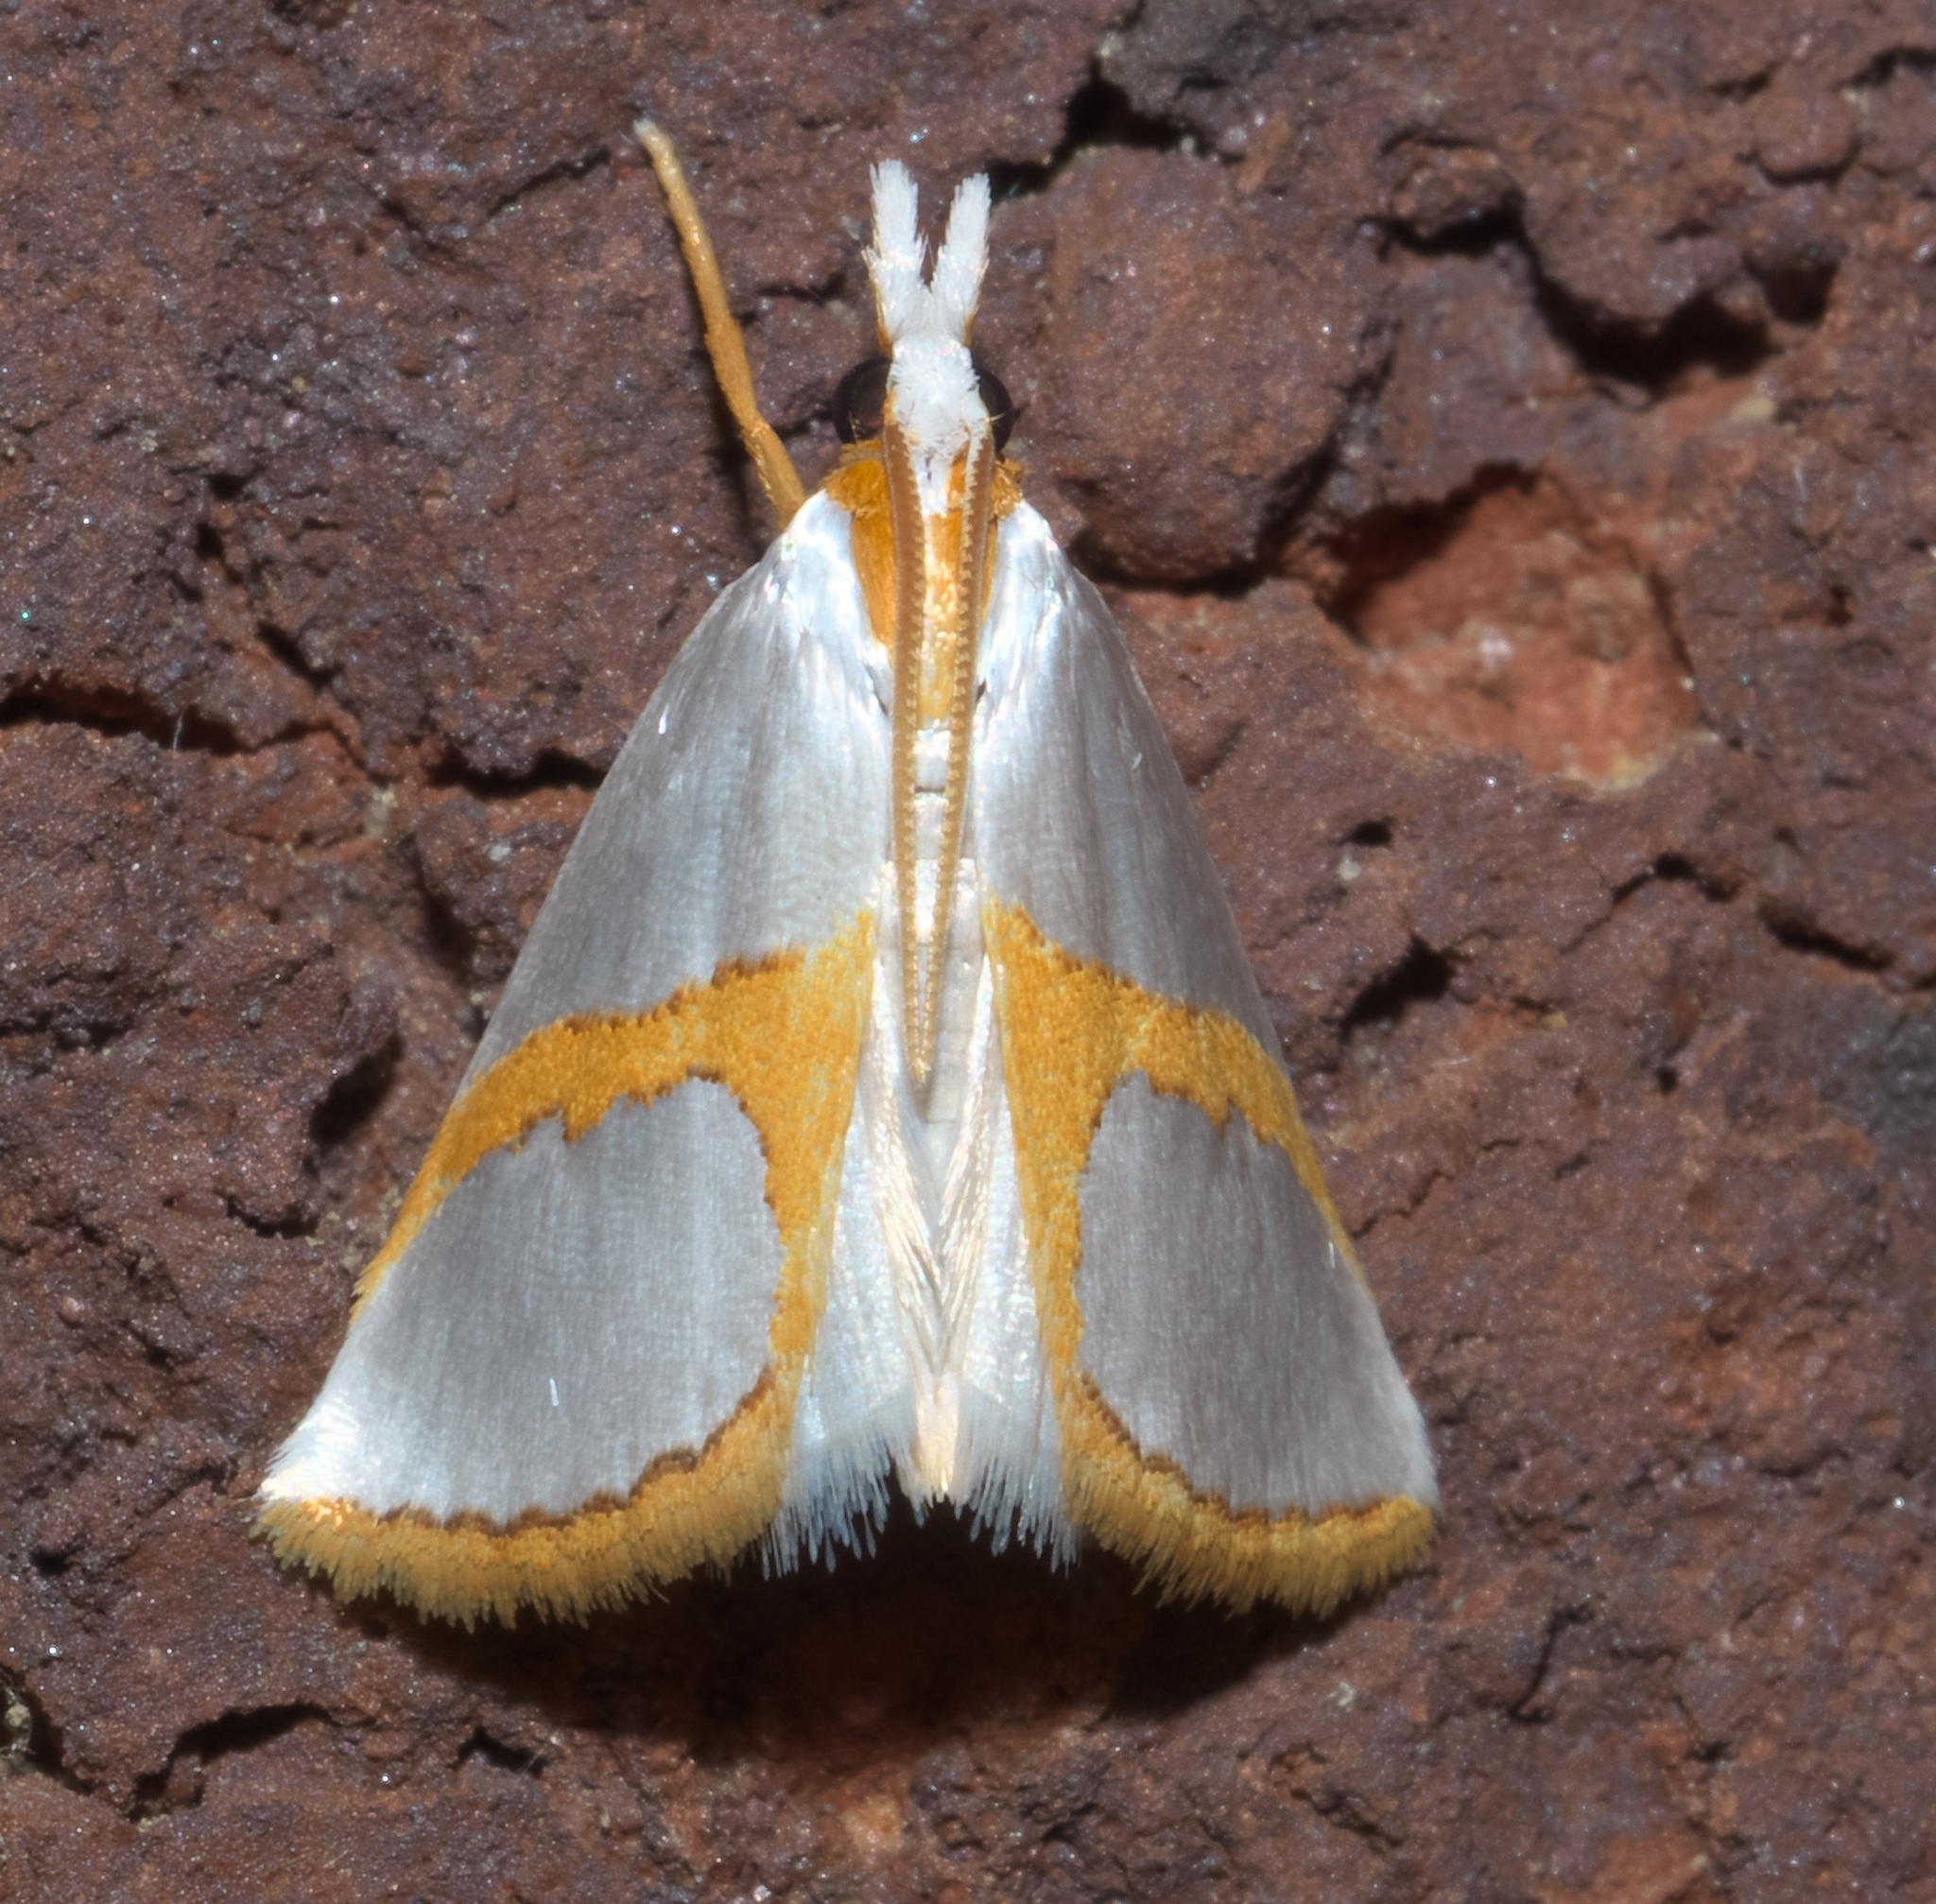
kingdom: Animalia
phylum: Arthropoda
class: Insecta
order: Lepidoptera
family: Crambidae
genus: Argyria
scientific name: Argyria auratella
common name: Curve-lined argyria moth
